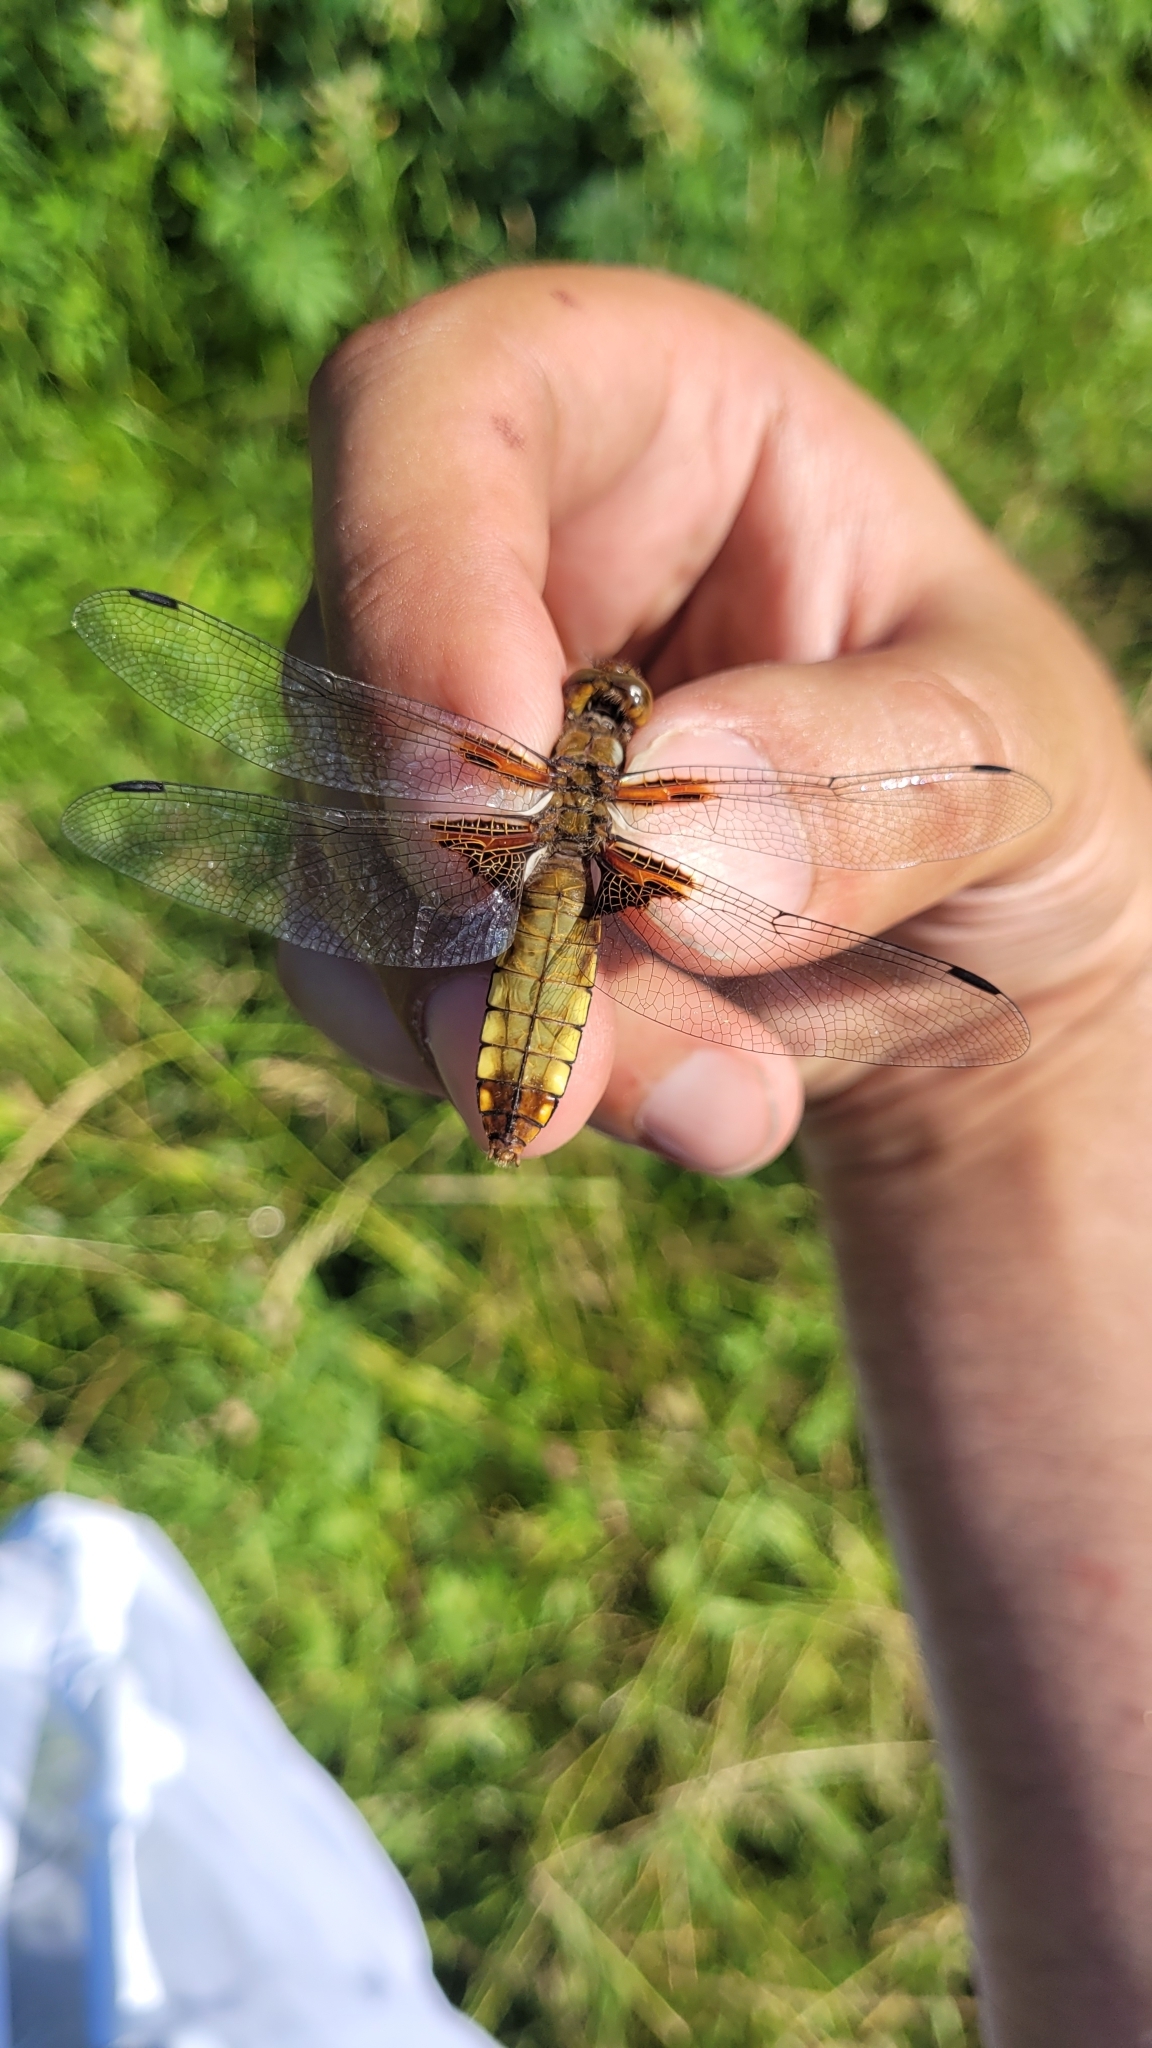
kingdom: Animalia
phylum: Arthropoda
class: Insecta
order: Odonata
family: Libellulidae
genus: Libellula
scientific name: Libellula depressa
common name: Broad-bodied chaser
